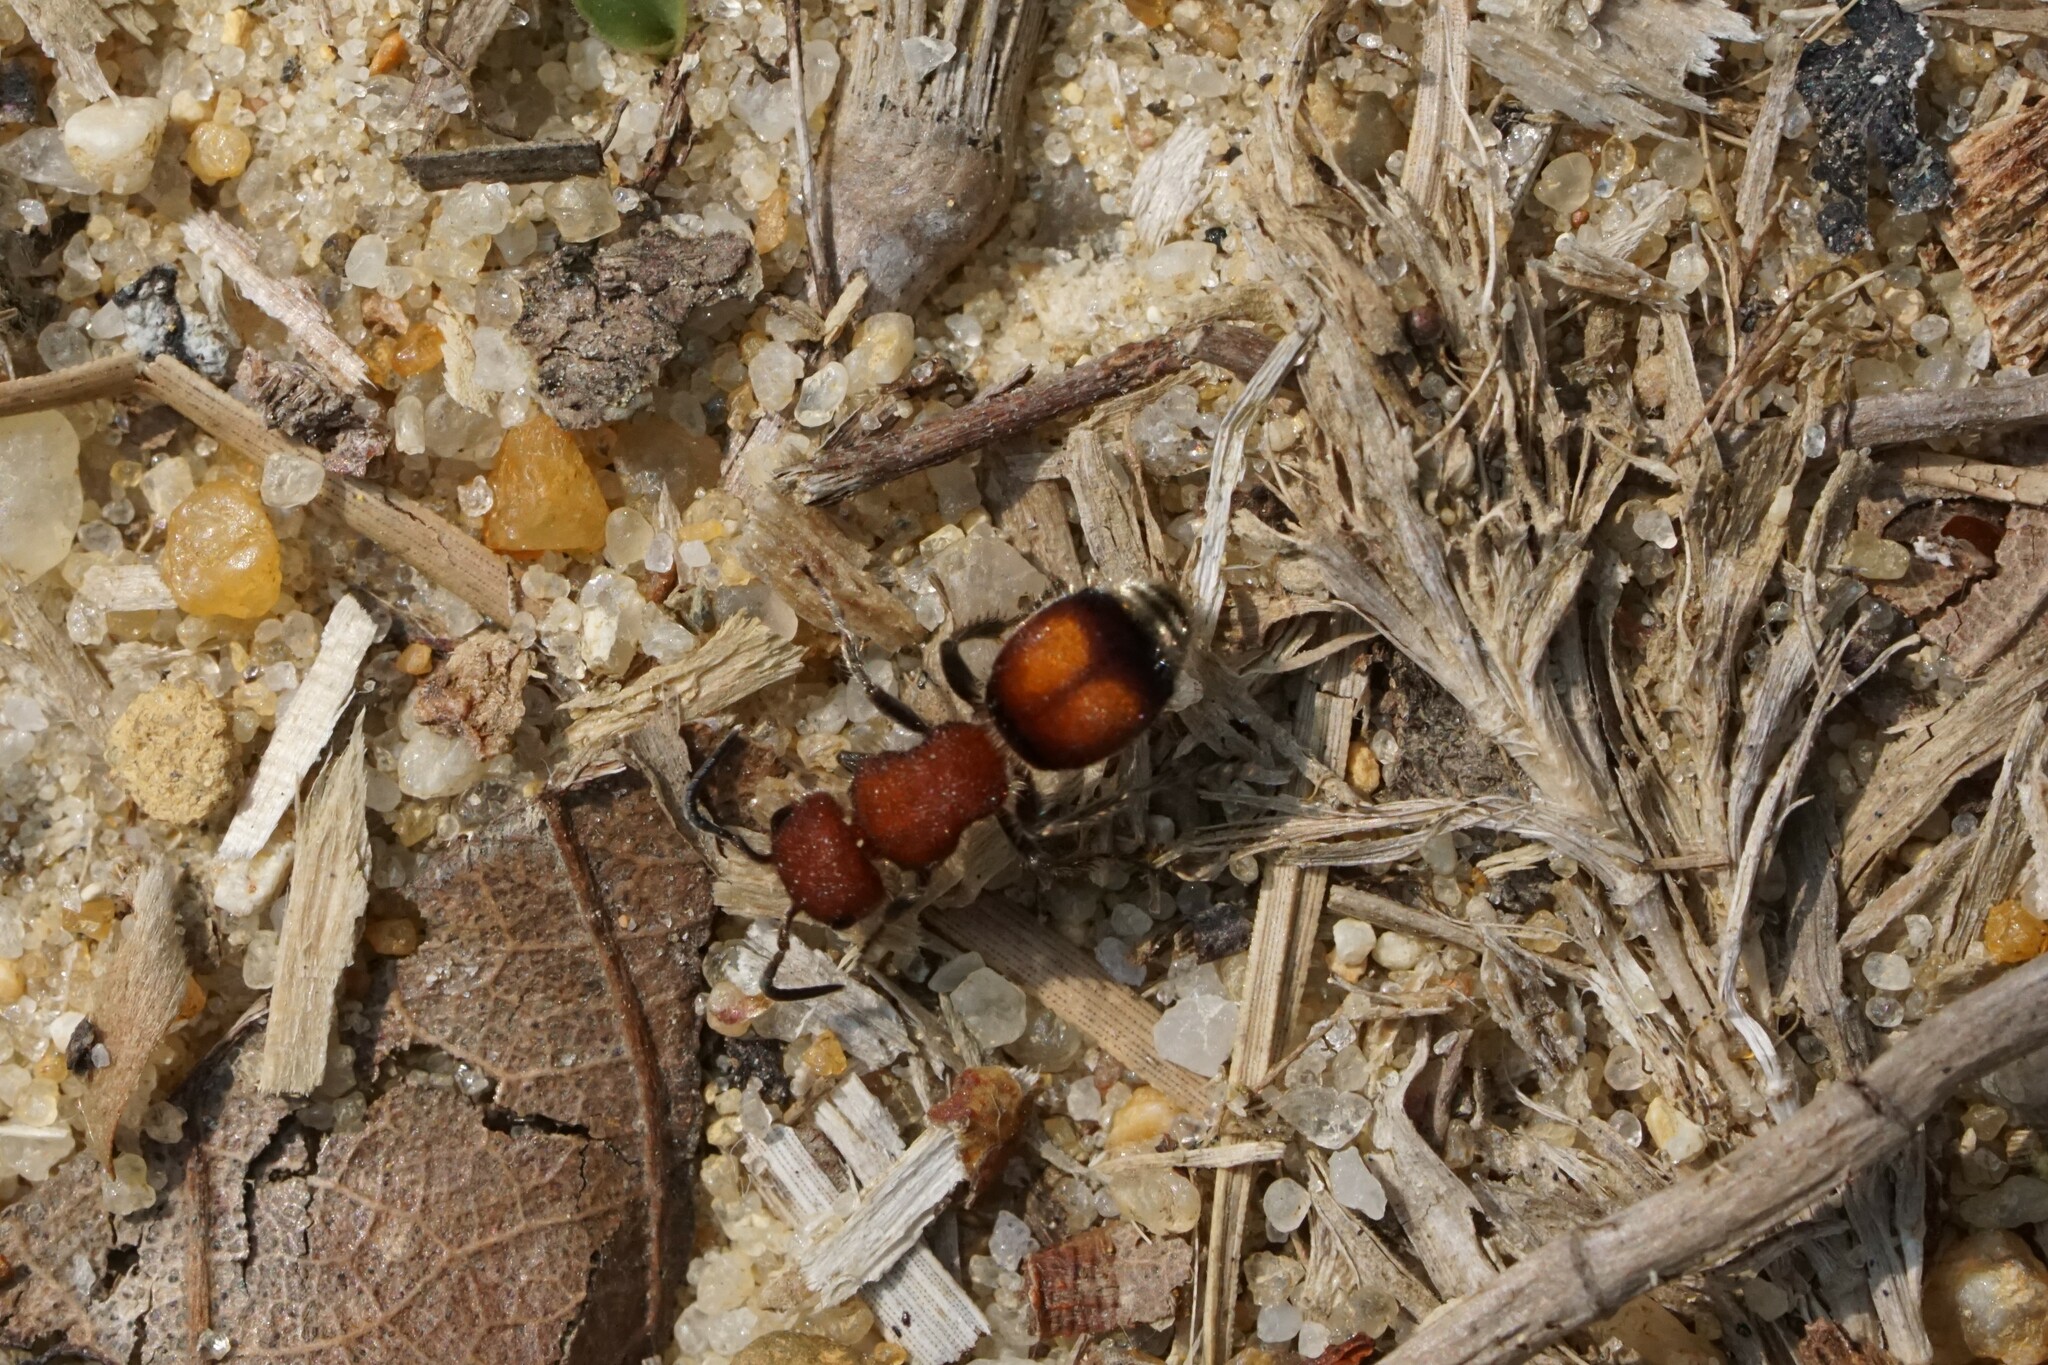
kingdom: Animalia
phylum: Arthropoda
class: Insecta
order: Hymenoptera
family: Mutillidae
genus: Pseudomethoca
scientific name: Pseudomethoca
